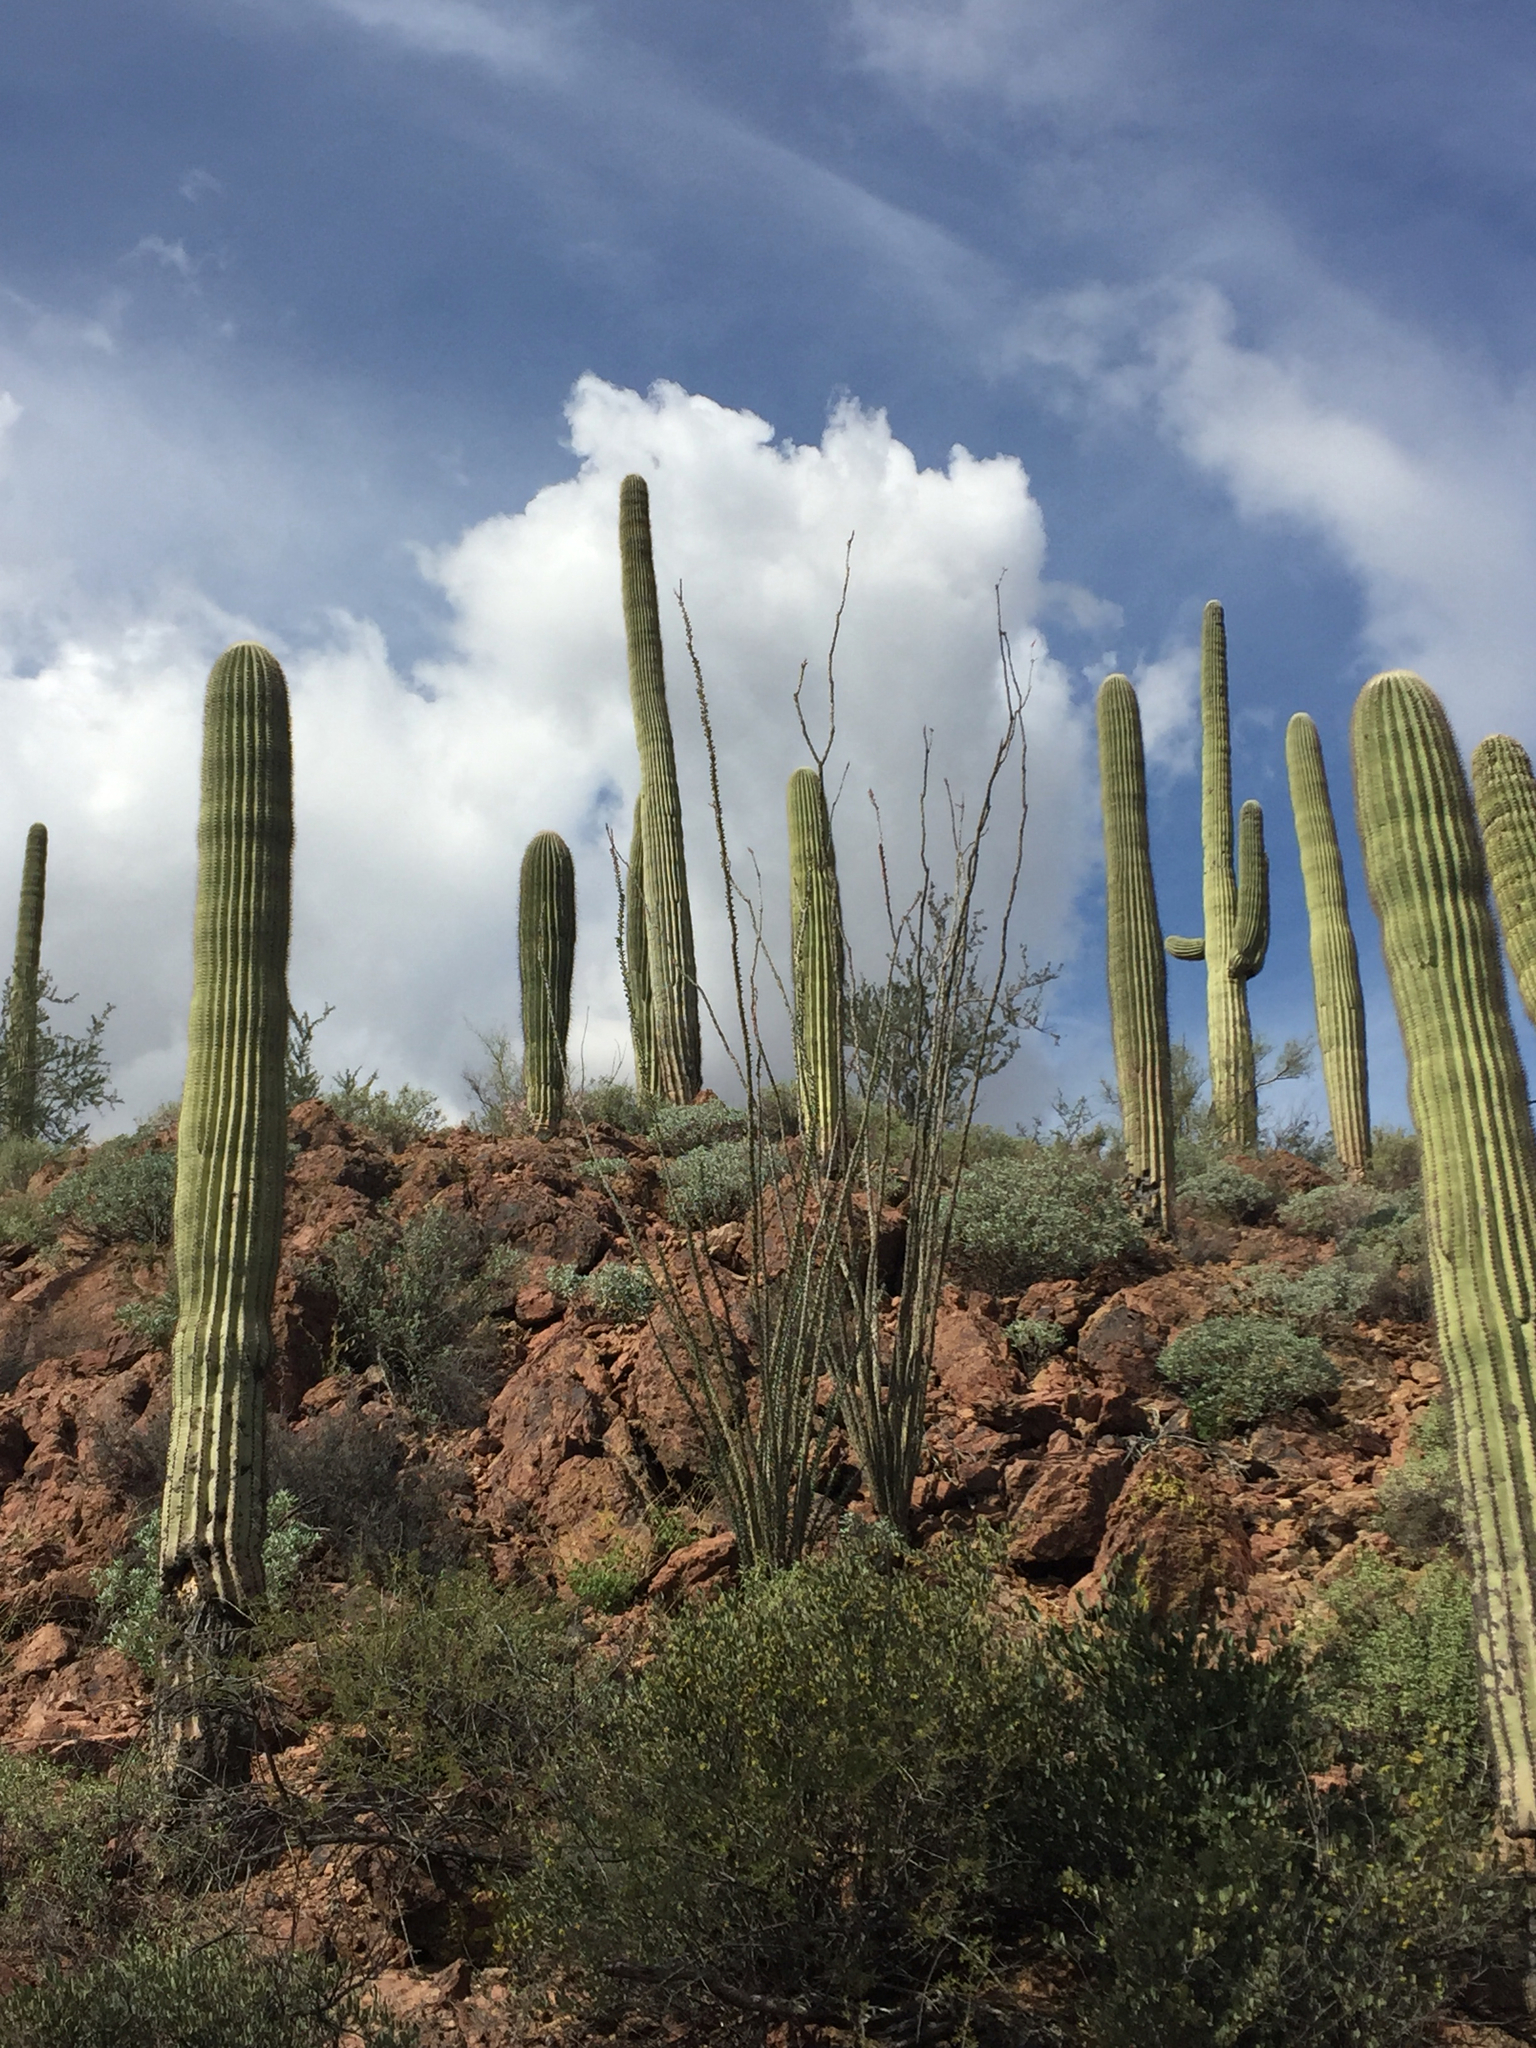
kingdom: Plantae
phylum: Tracheophyta
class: Magnoliopsida
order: Ericales
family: Fouquieriaceae
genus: Fouquieria
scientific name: Fouquieria splendens
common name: Vine-cactus
